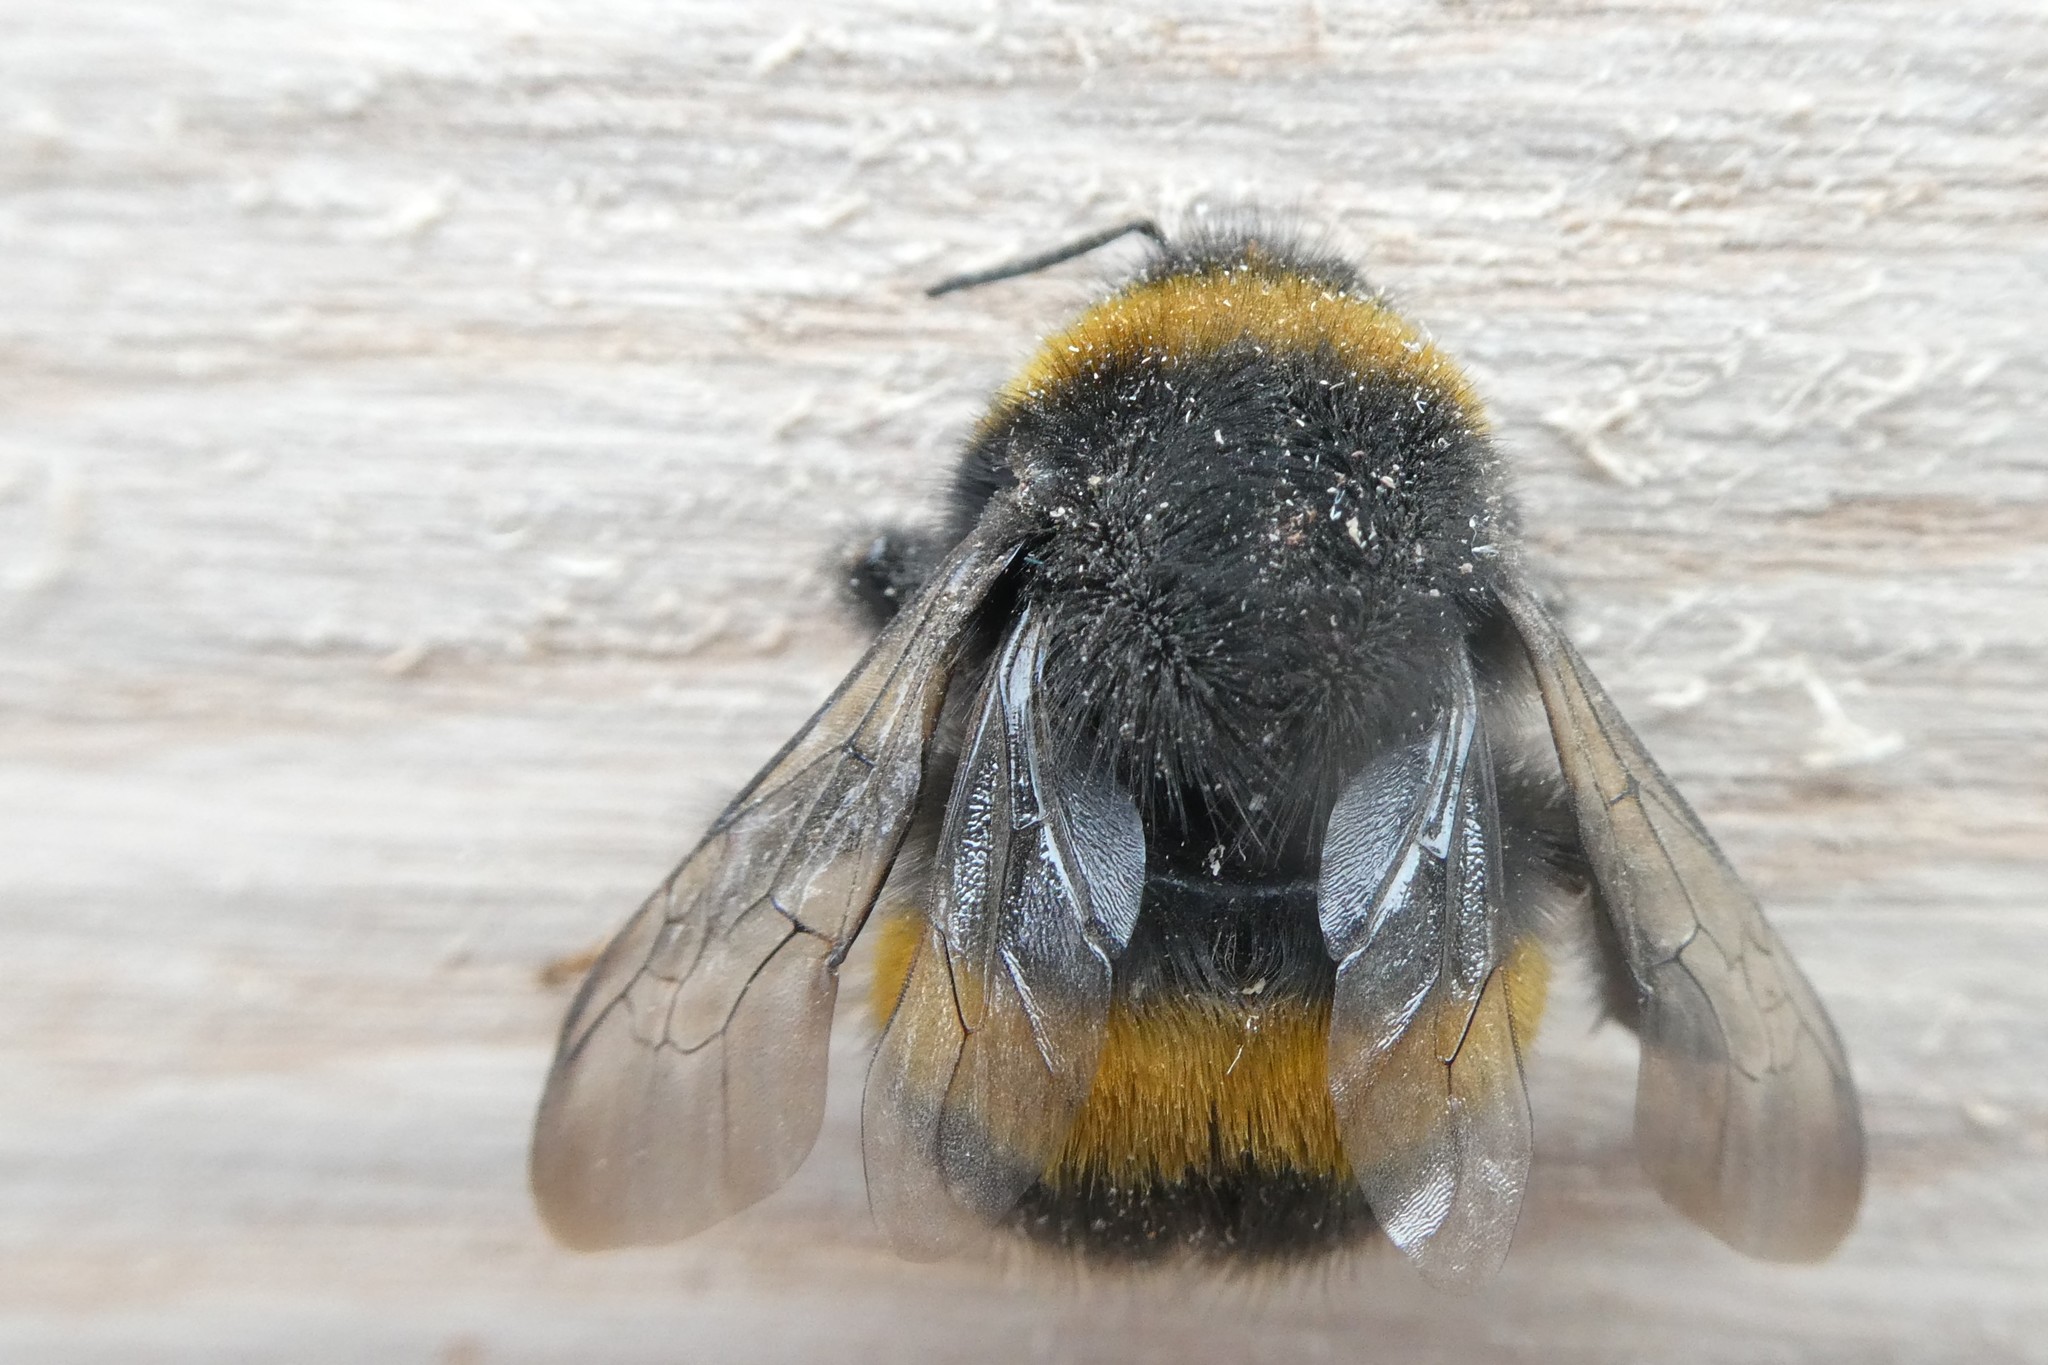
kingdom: Animalia
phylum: Arthropoda
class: Insecta
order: Hymenoptera
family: Apidae
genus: Bombus
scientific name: Bombus terrestris
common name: Buff-tailed bumblebee
